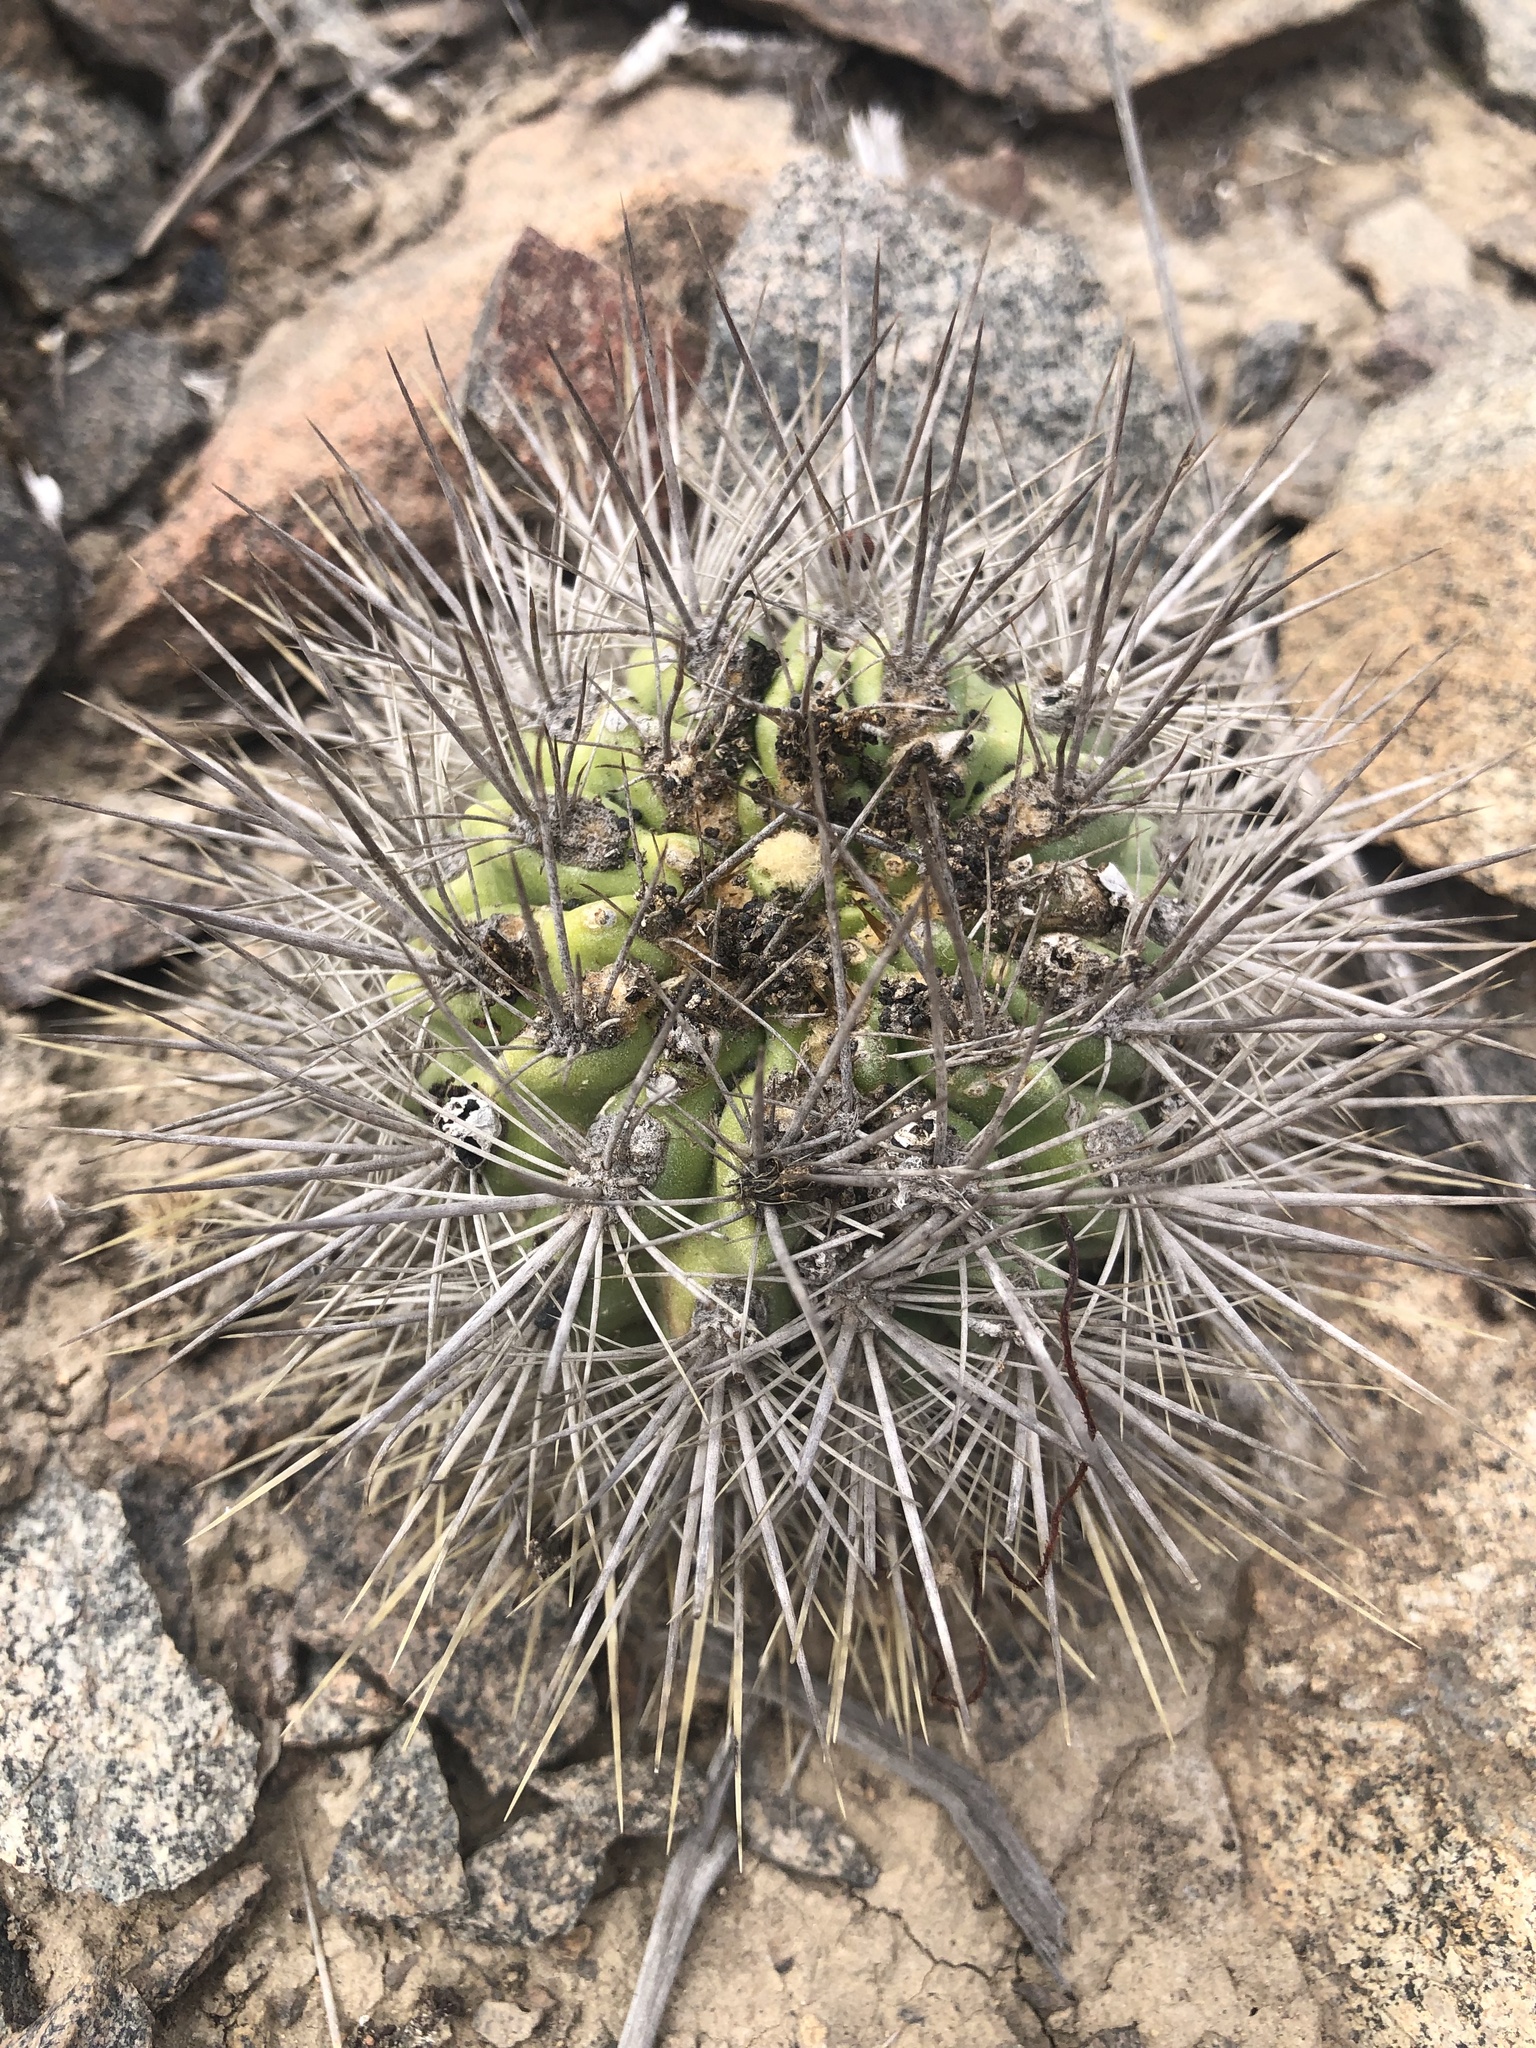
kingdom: Plantae
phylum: Tracheophyta
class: Magnoliopsida
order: Caryophyllales
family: Cactaceae
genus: Eriosyce
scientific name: Eriosyce wagenknechtii
